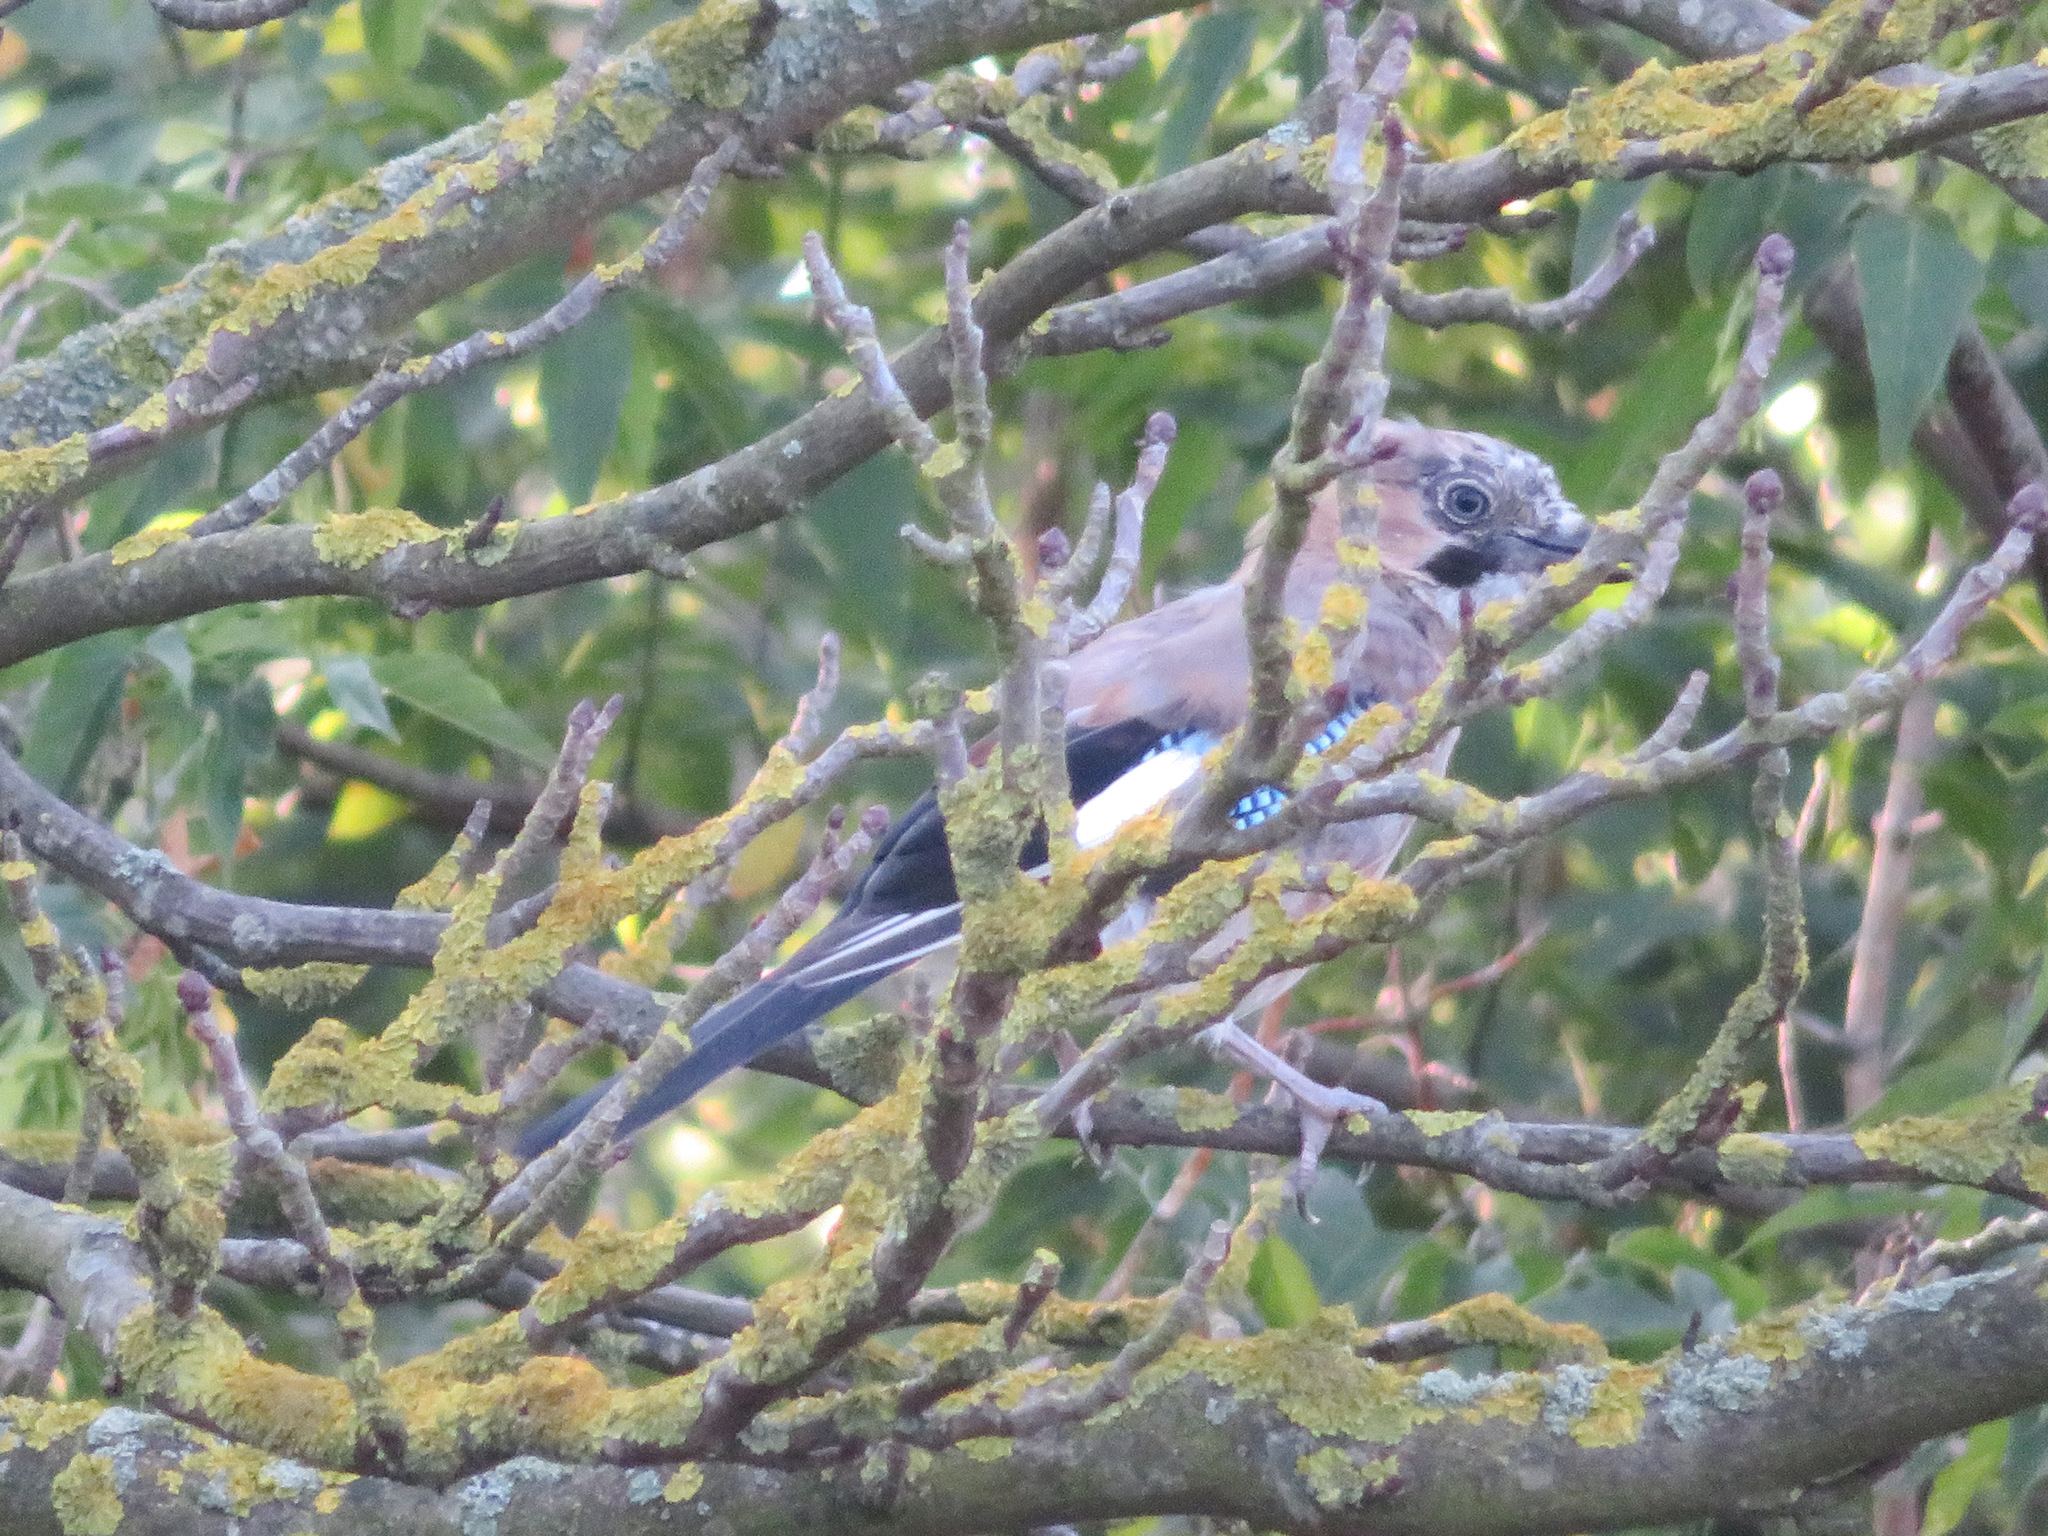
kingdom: Animalia
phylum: Chordata
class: Aves
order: Passeriformes
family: Corvidae
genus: Garrulus
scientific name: Garrulus glandarius
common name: Eurasian jay
